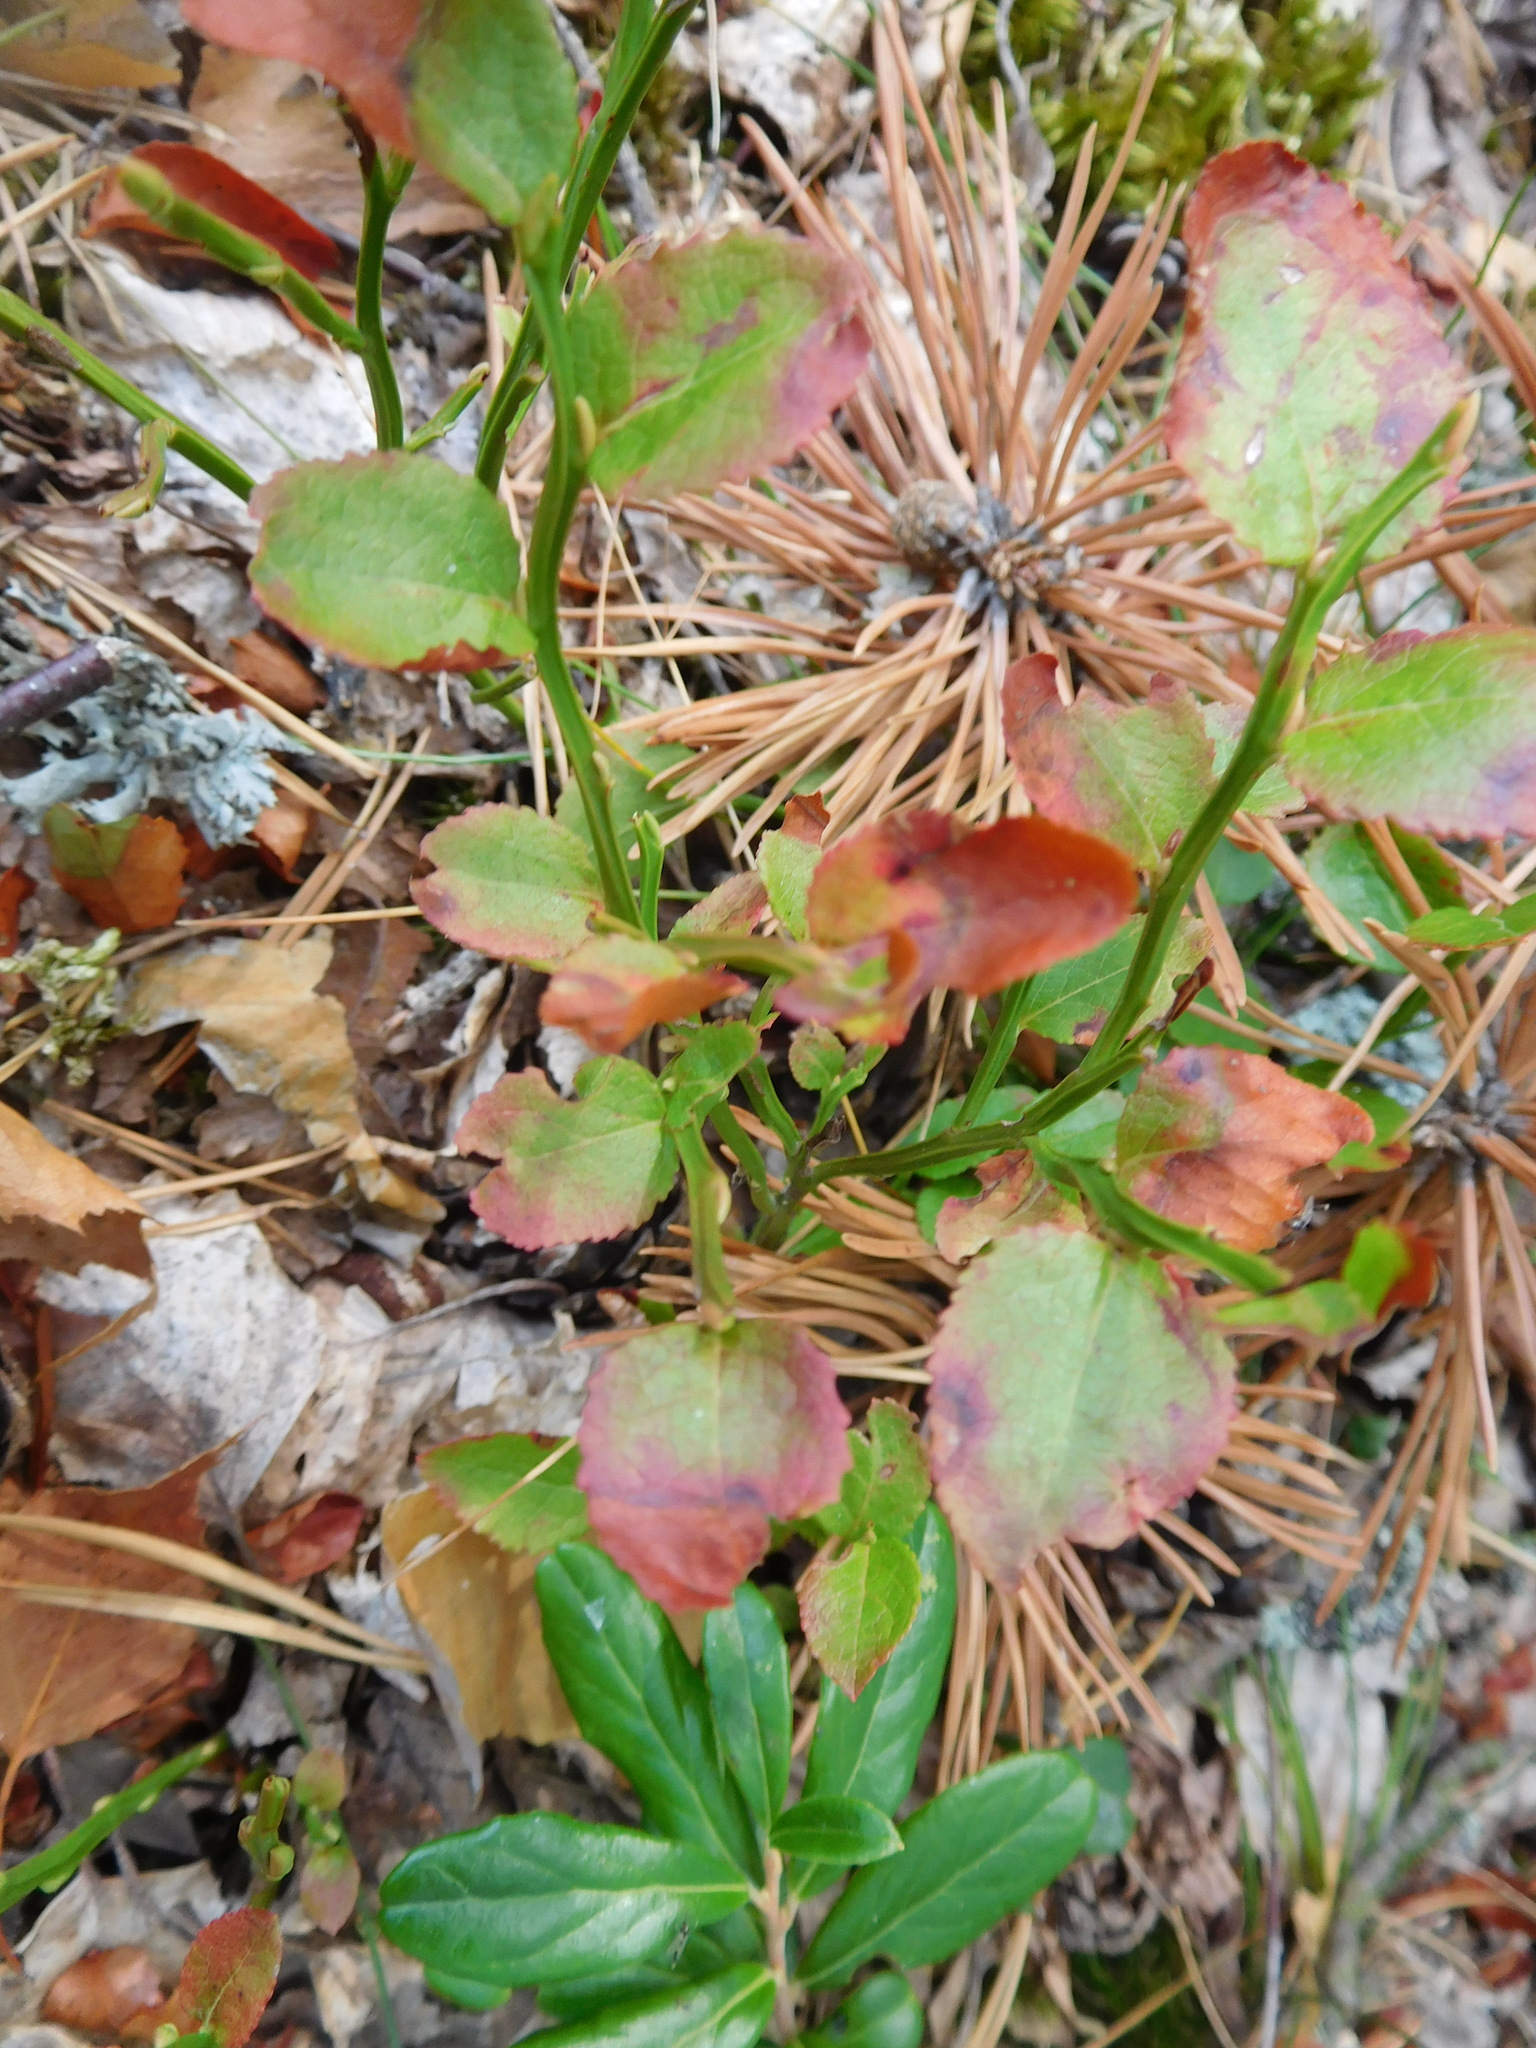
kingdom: Plantae
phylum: Tracheophyta
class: Magnoliopsida
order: Ericales
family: Ericaceae
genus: Vaccinium
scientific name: Vaccinium myrtillus
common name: Bilberry
